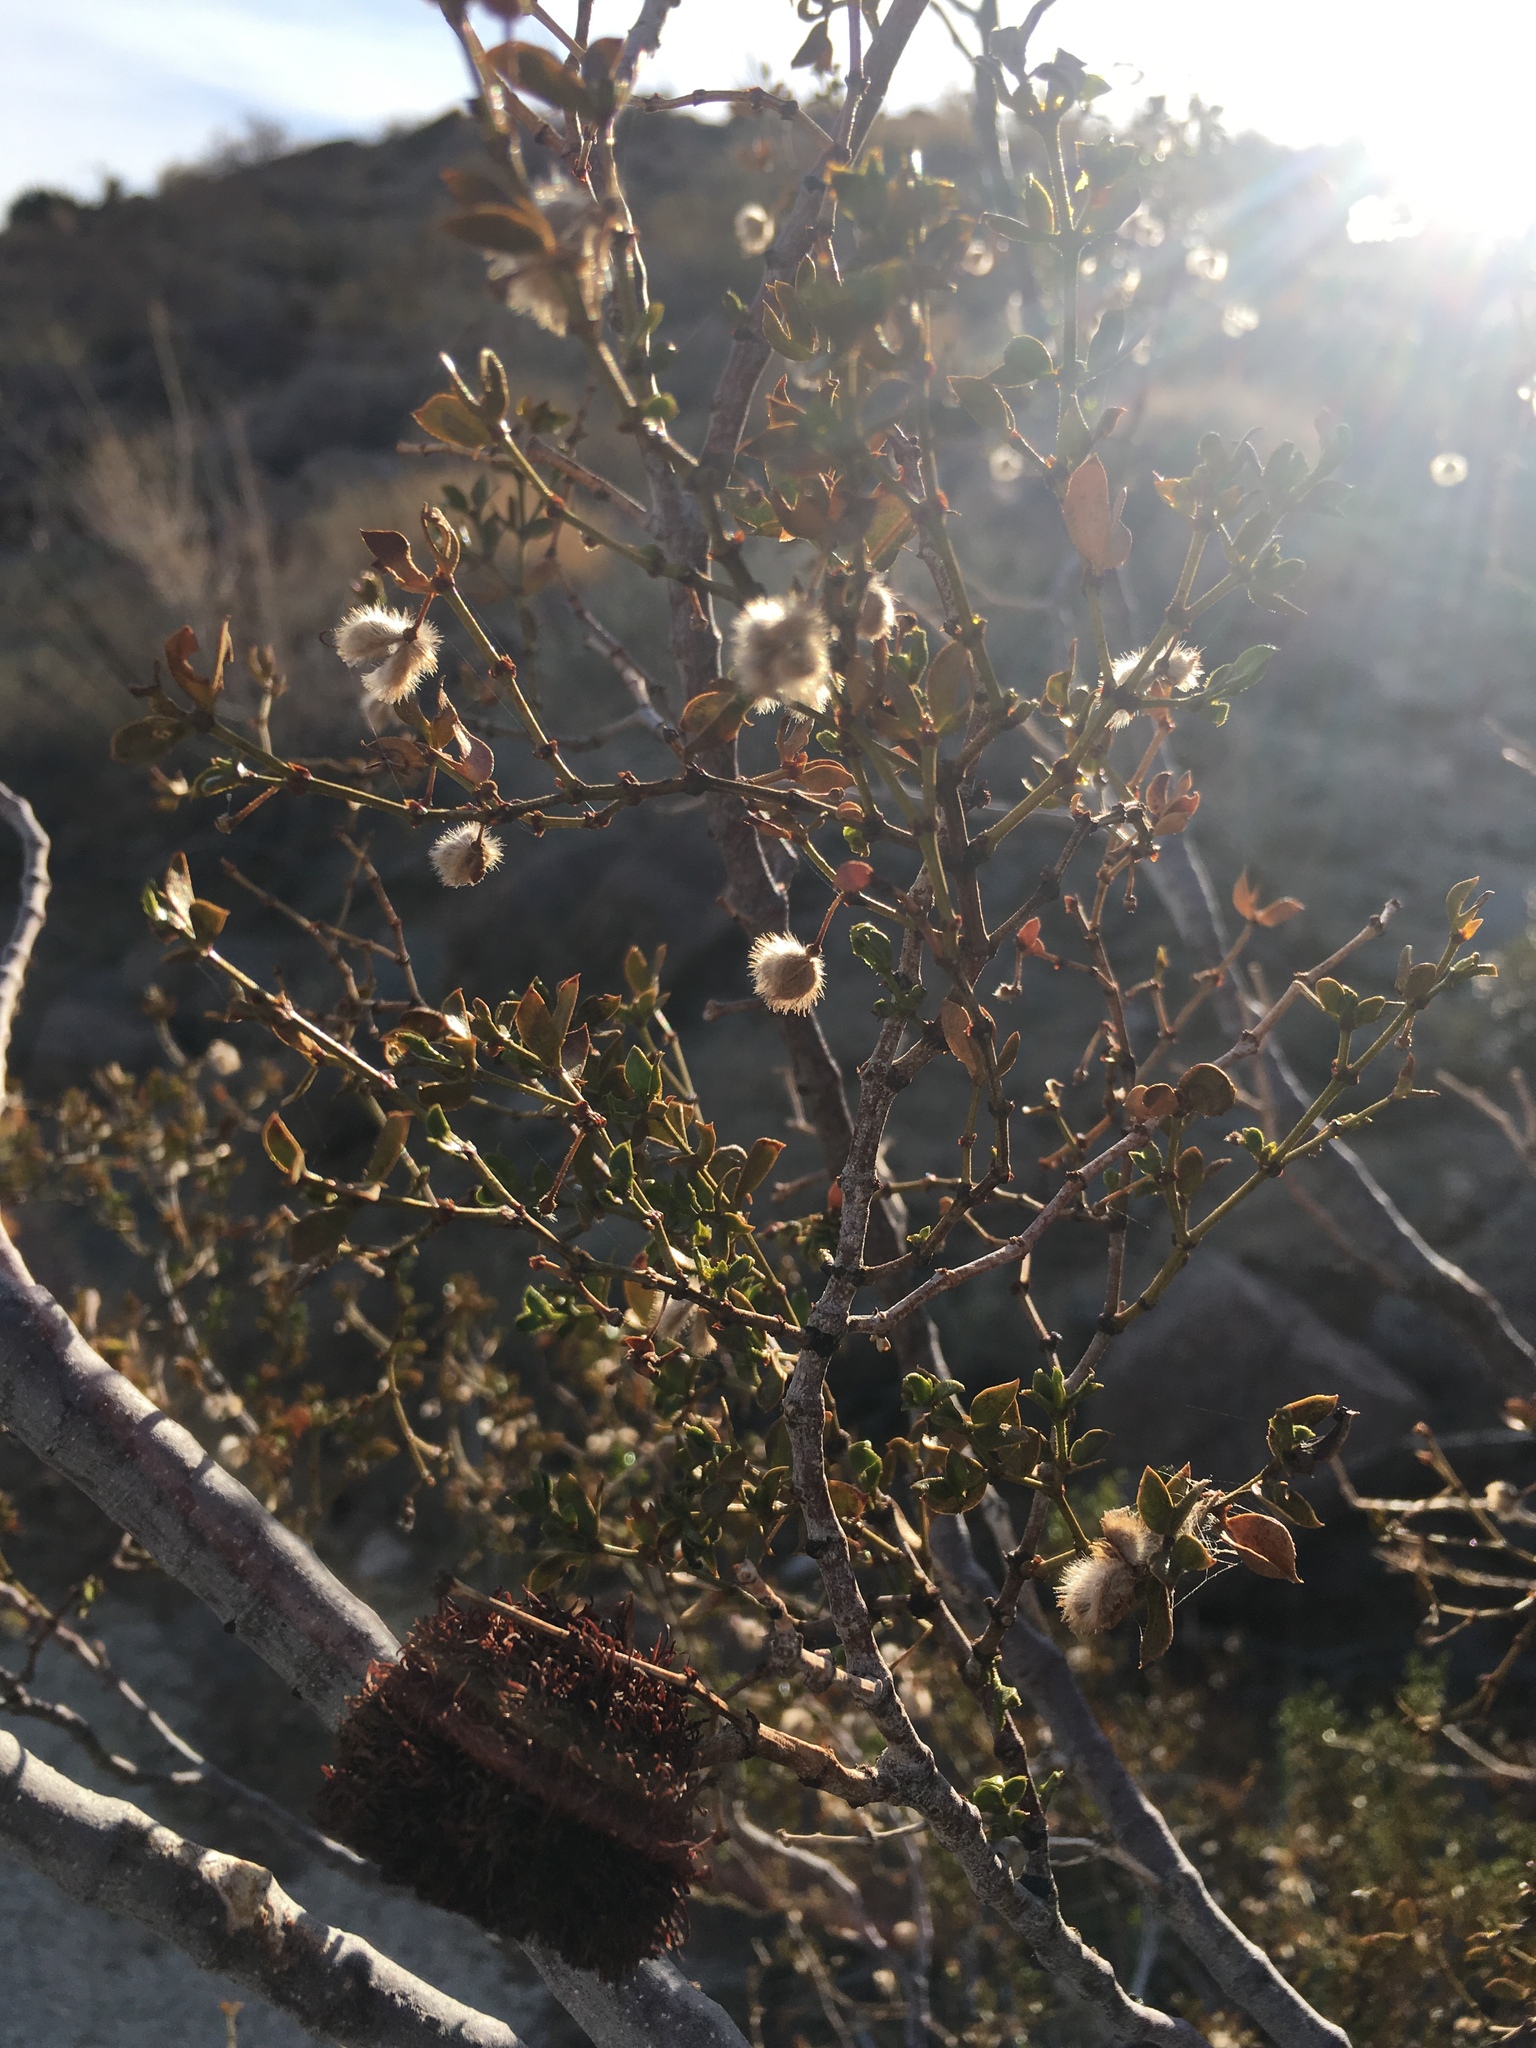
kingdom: Animalia
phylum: Arthropoda
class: Insecta
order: Diptera
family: Cecidomyiidae
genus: Asphondylia
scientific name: Asphondylia auripila
